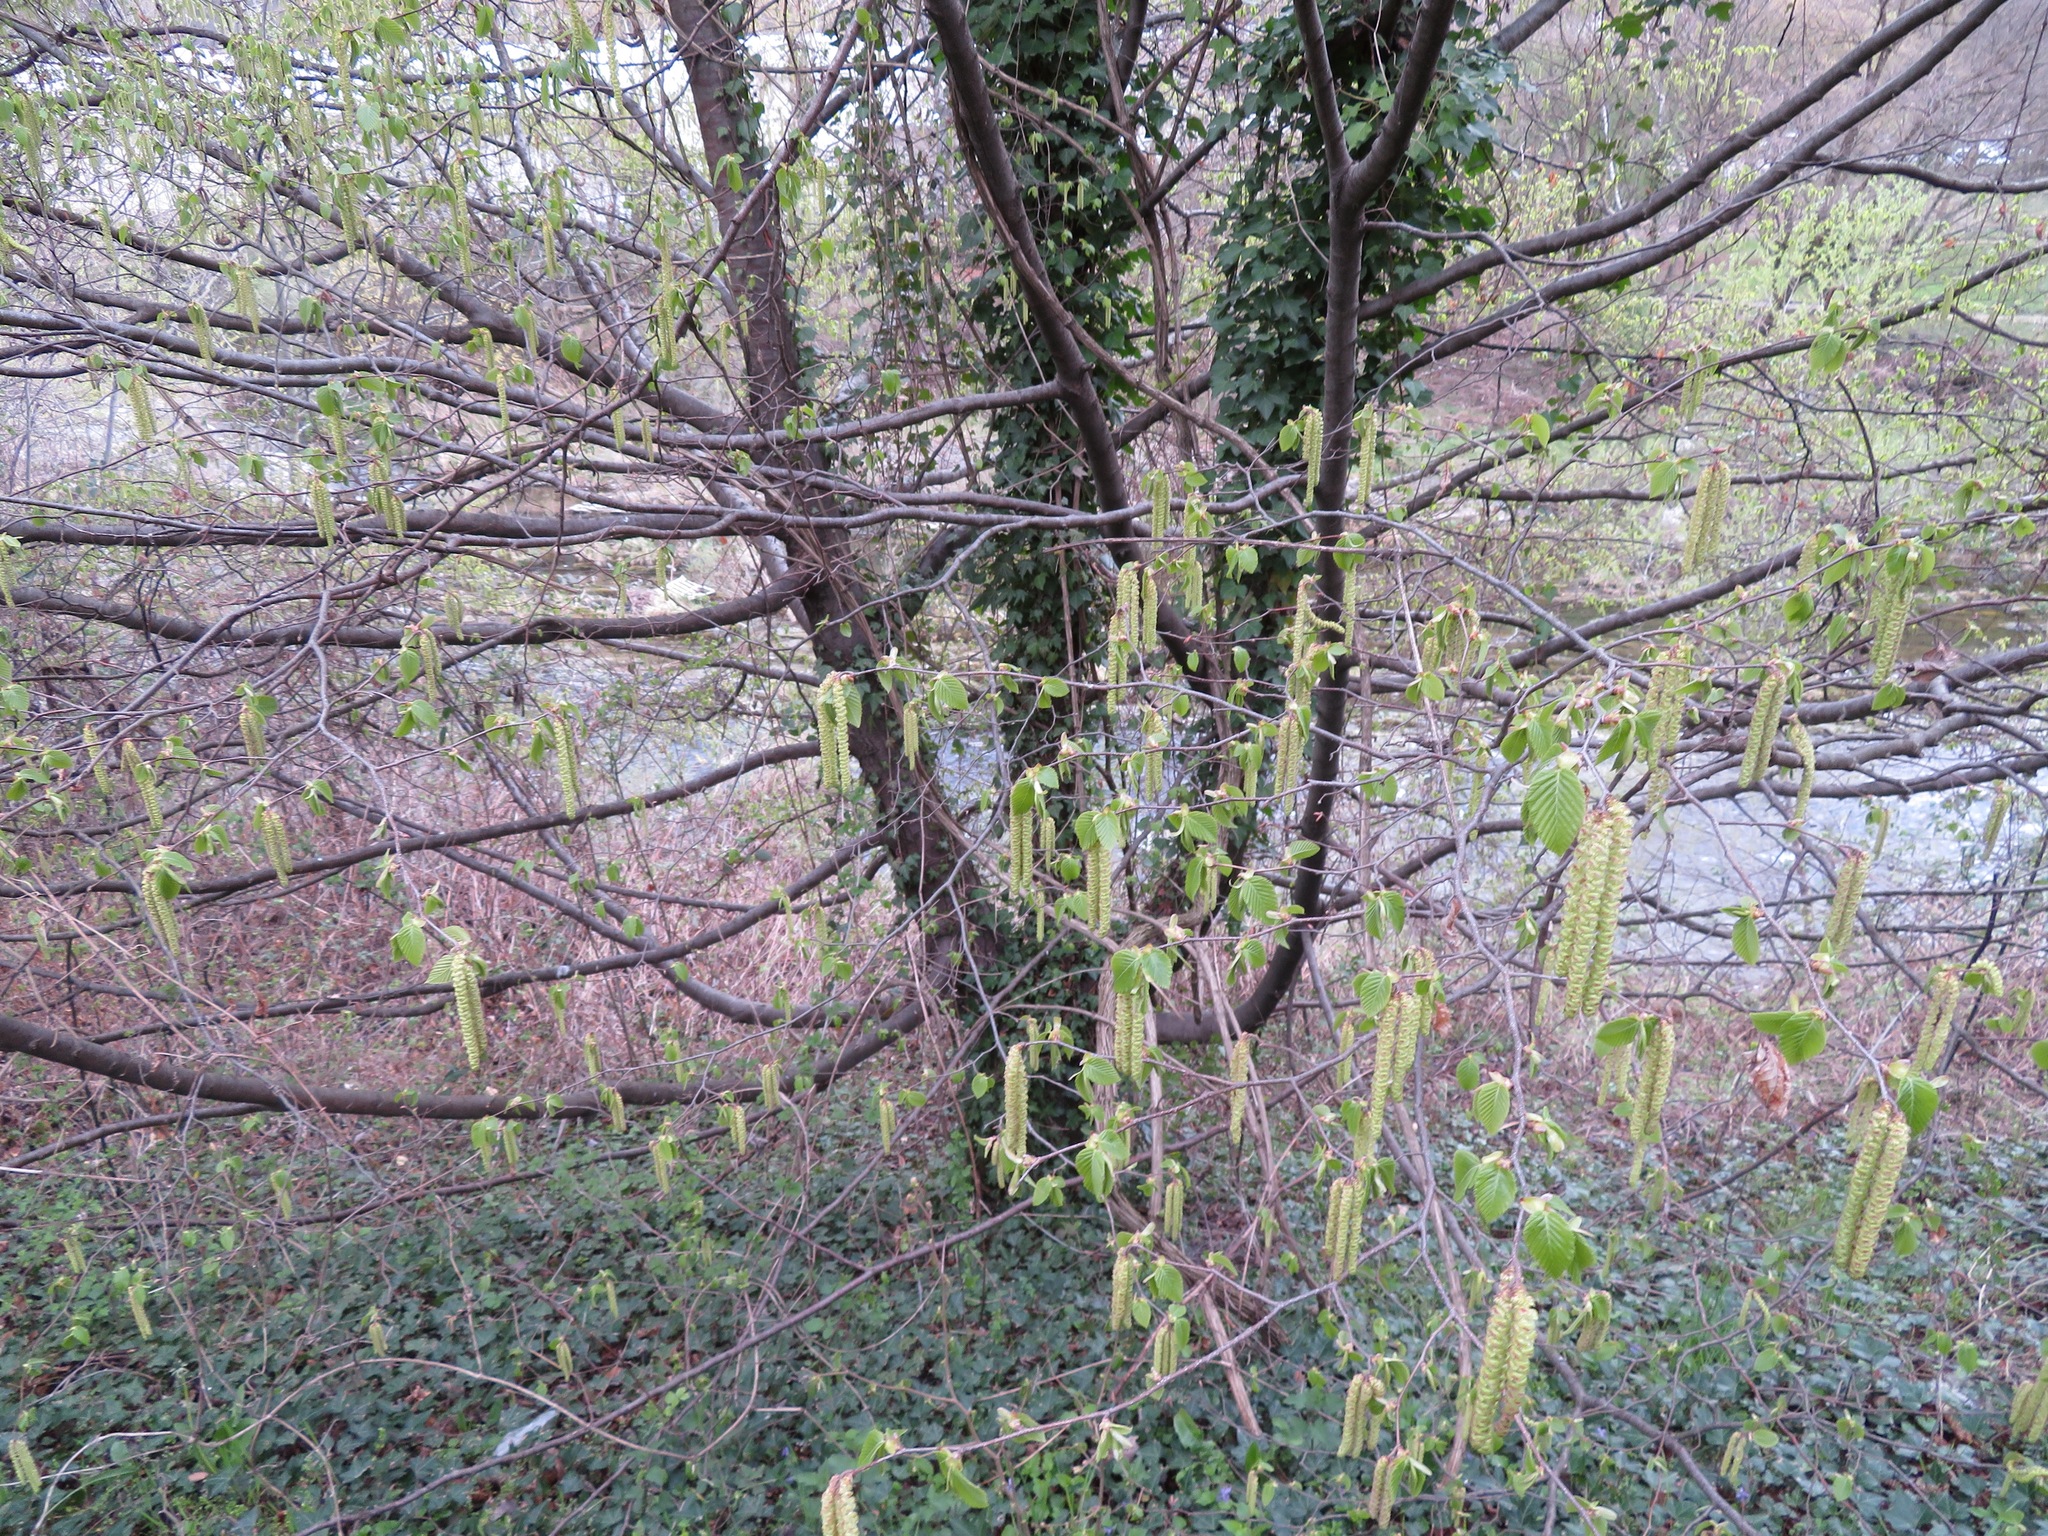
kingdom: Plantae
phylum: Tracheophyta
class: Magnoliopsida
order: Fagales
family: Betulaceae
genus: Ostrya
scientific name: Ostrya carpinifolia
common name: European hop-hornbeam
